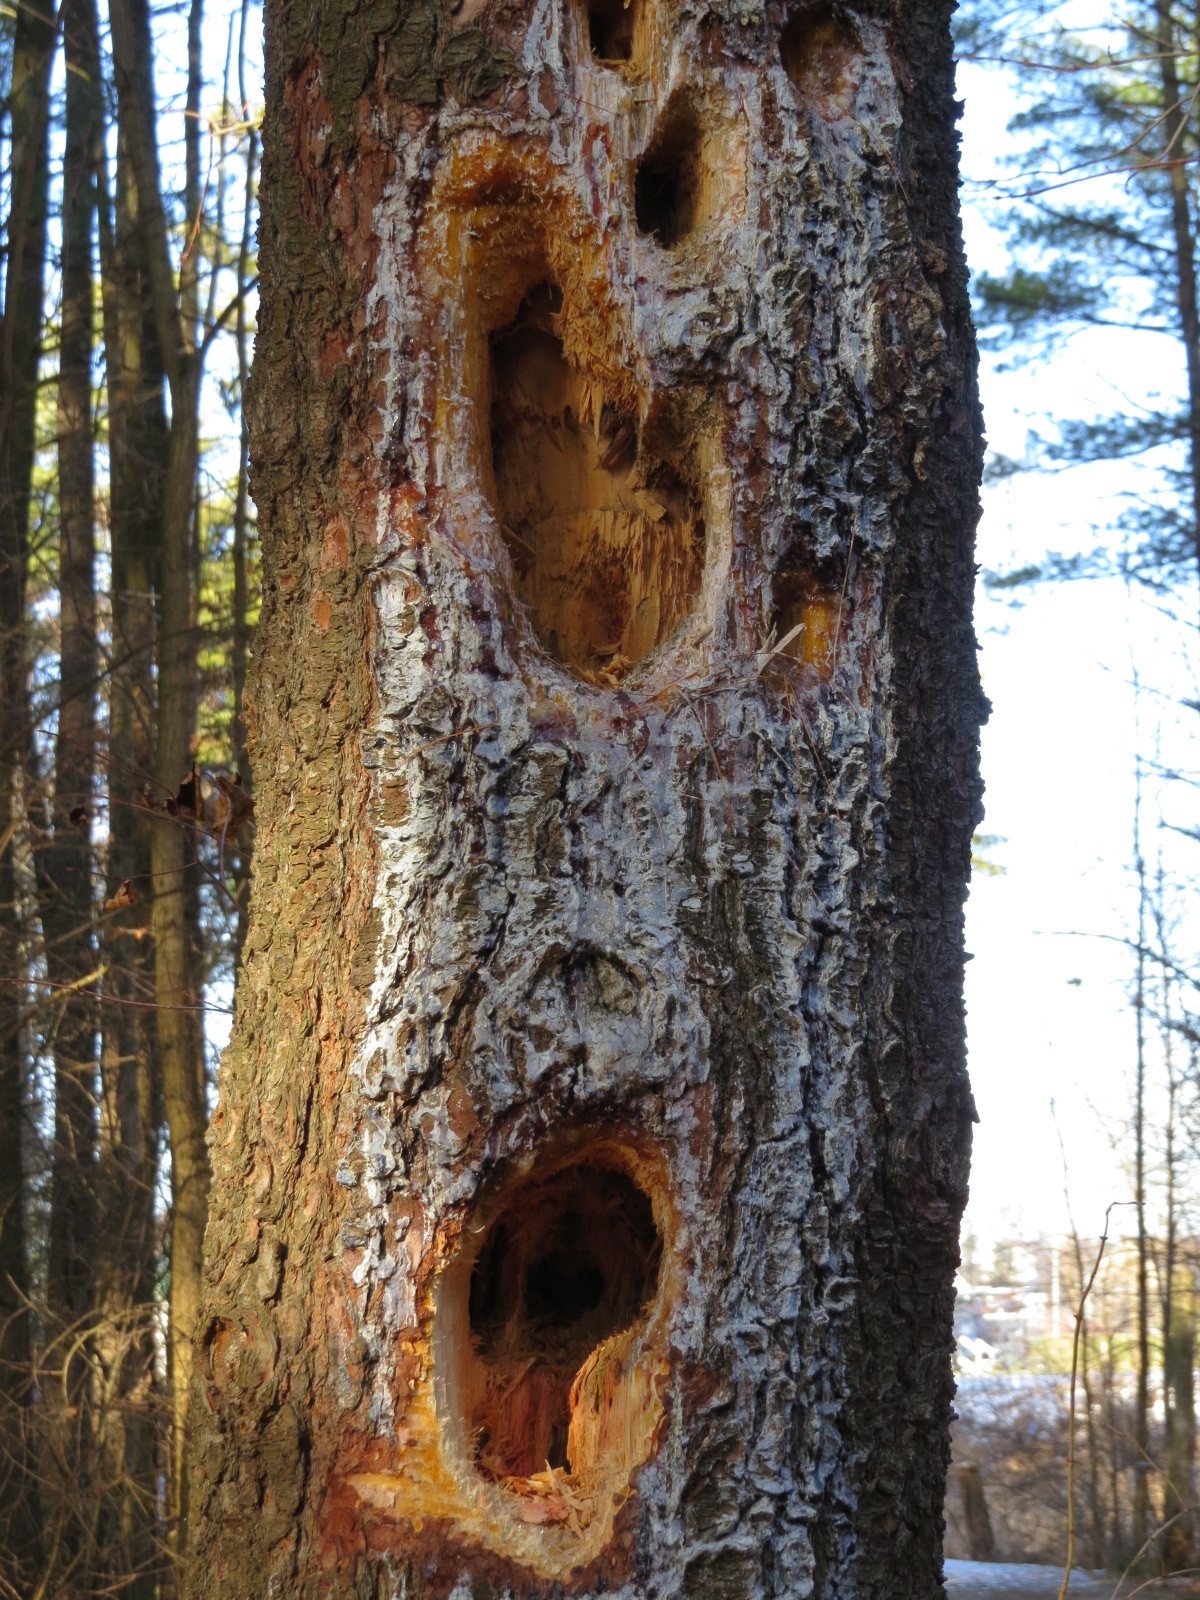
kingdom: Animalia
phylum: Chordata
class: Aves
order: Piciformes
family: Picidae
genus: Dryocopus
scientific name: Dryocopus pileatus
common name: Pileated woodpecker
